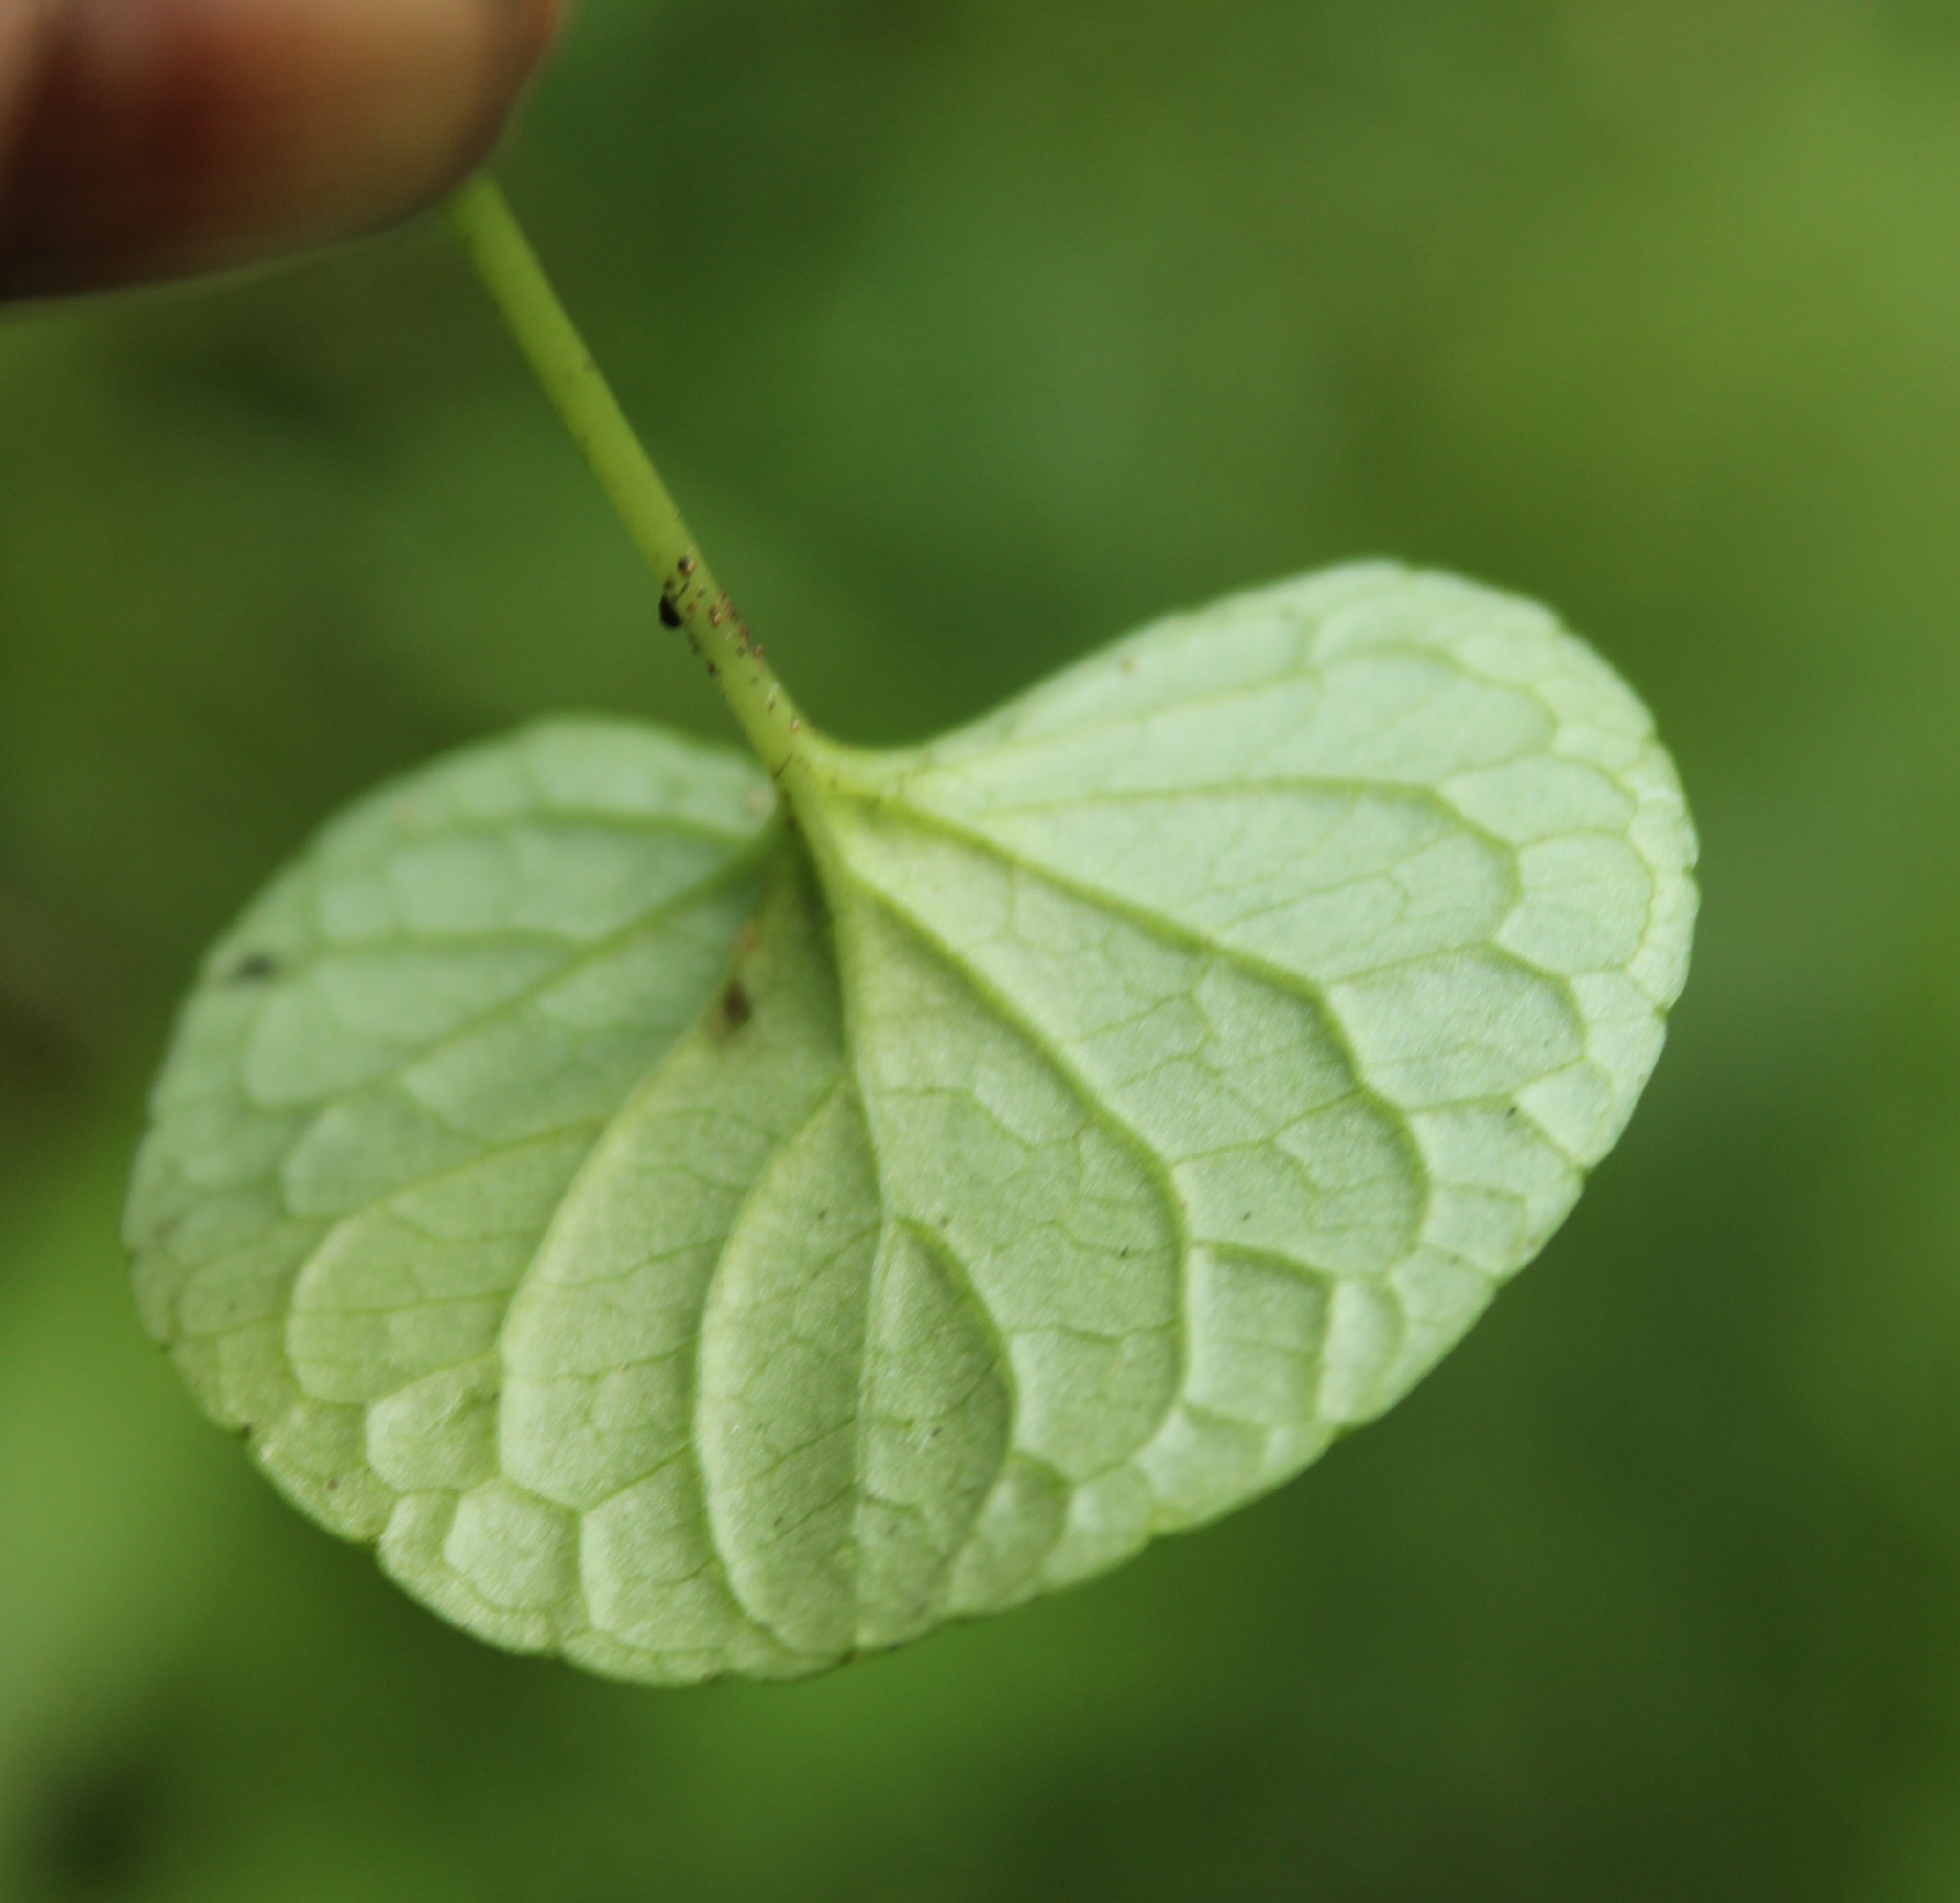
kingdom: Plantae
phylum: Tracheophyta
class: Magnoliopsida
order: Malpighiales
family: Violaceae
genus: Viola
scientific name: Viola palustris
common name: Marsh violet
